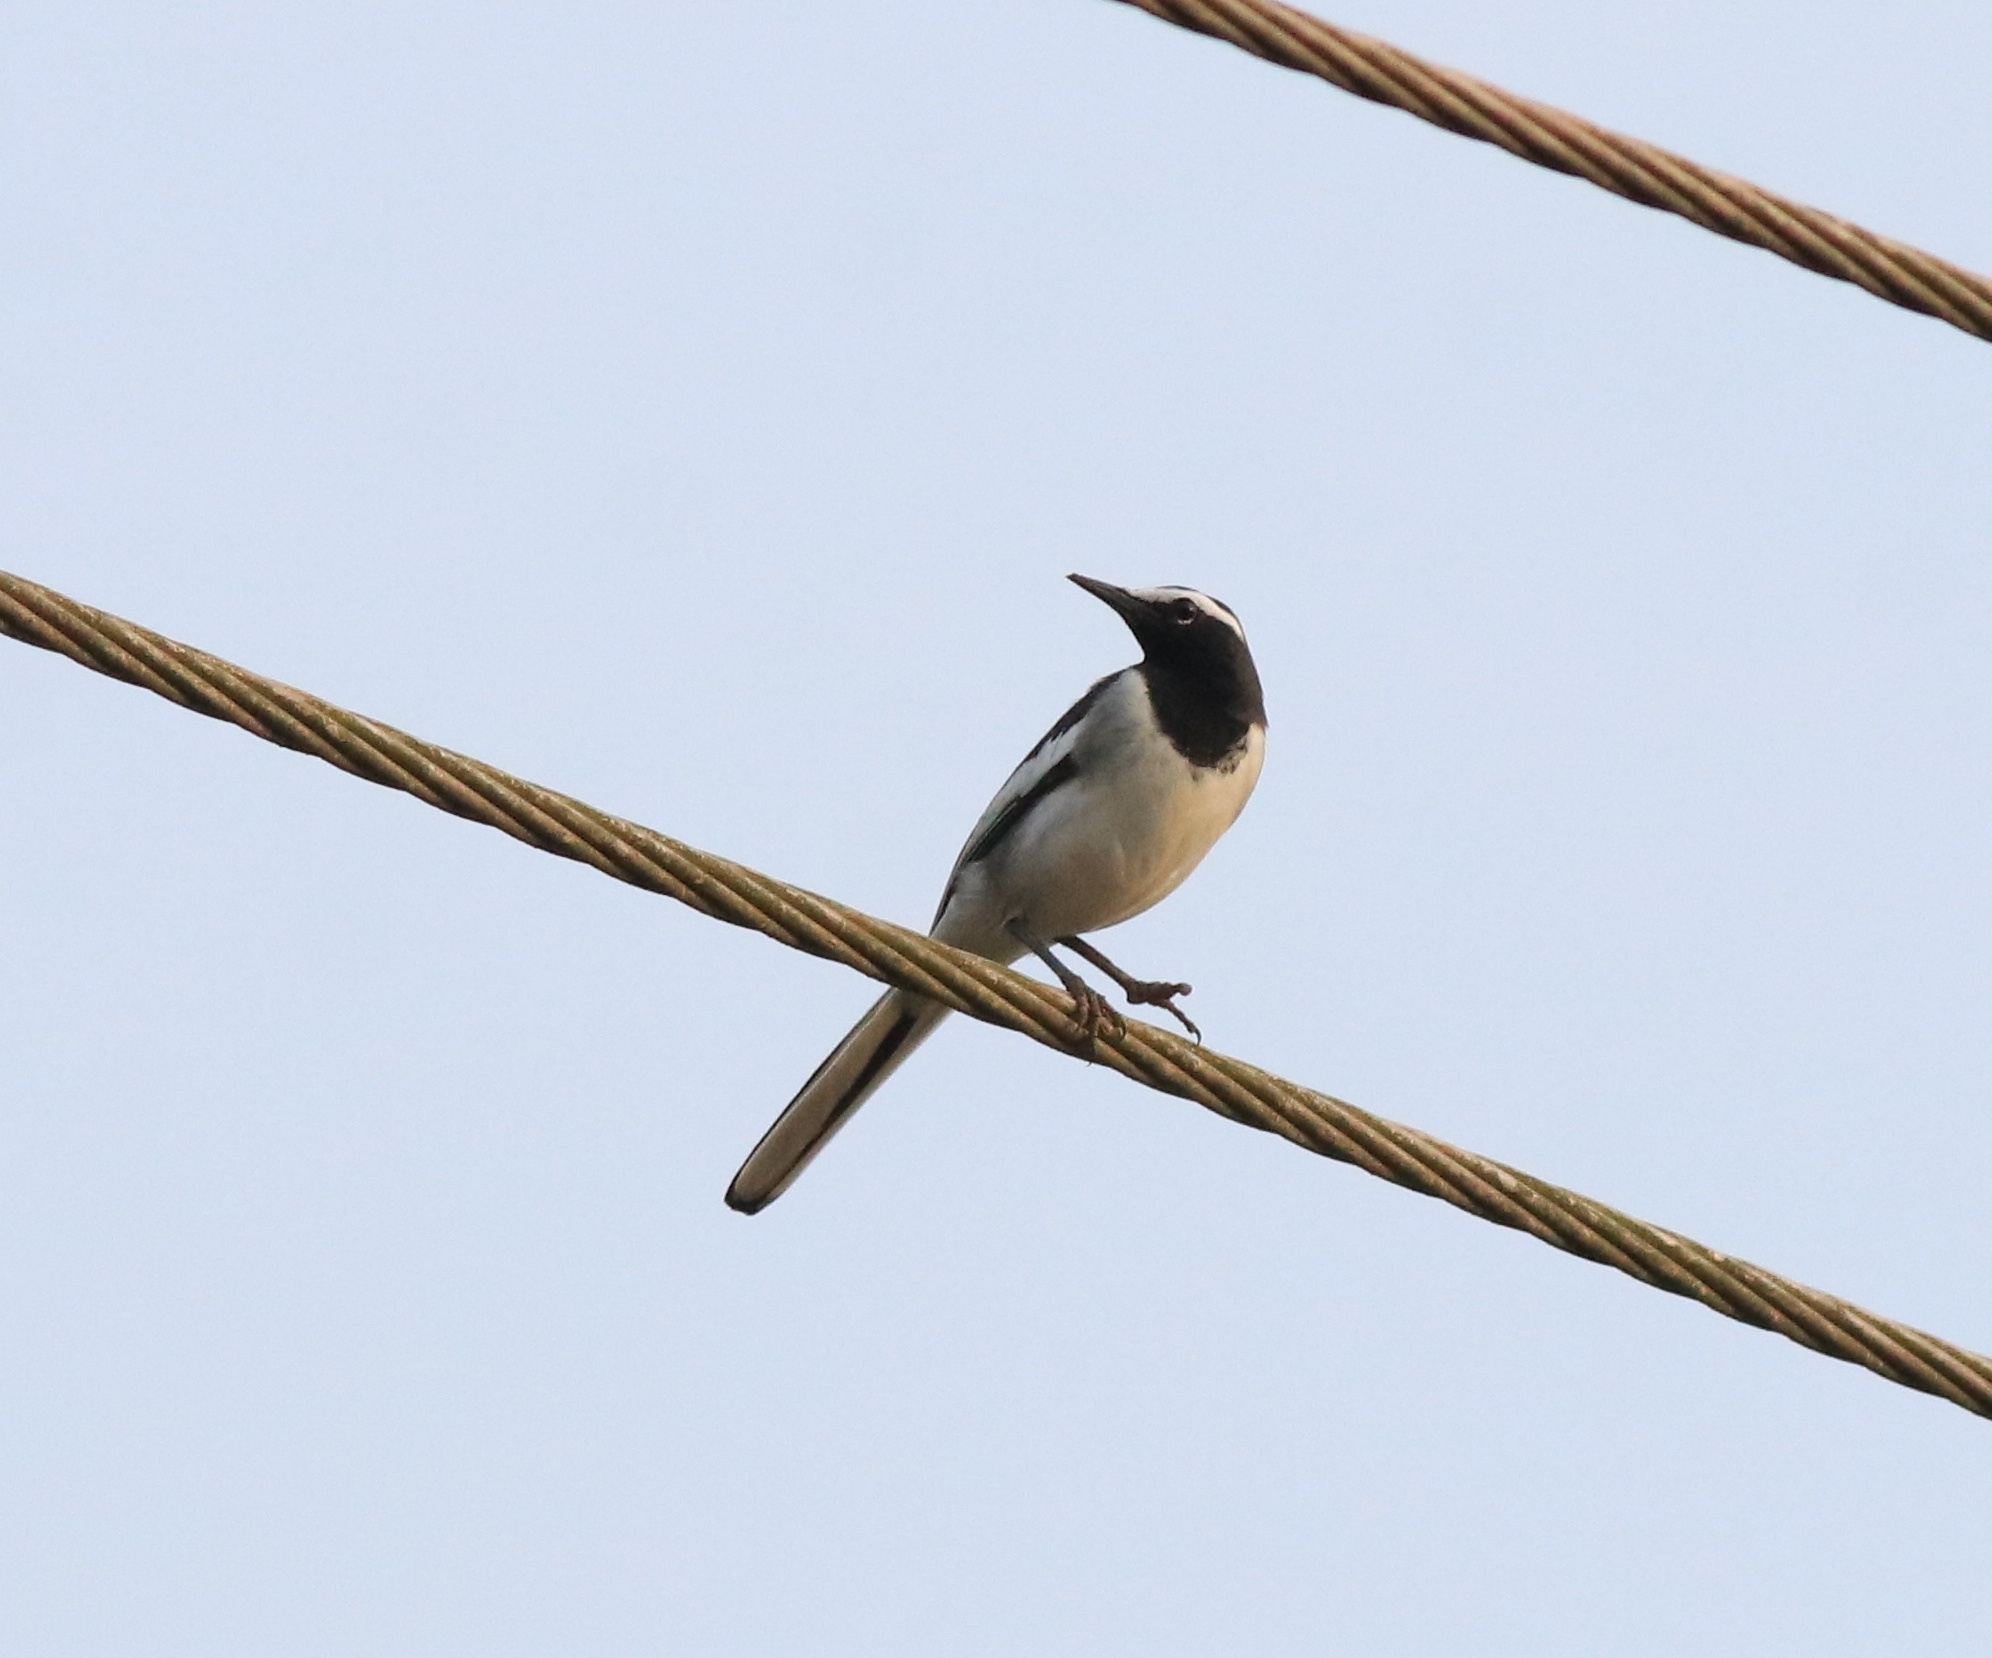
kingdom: Animalia
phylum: Chordata
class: Aves
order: Passeriformes
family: Motacillidae
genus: Motacilla
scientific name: Motacilla maderaspatensis
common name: White-browed wagtail
